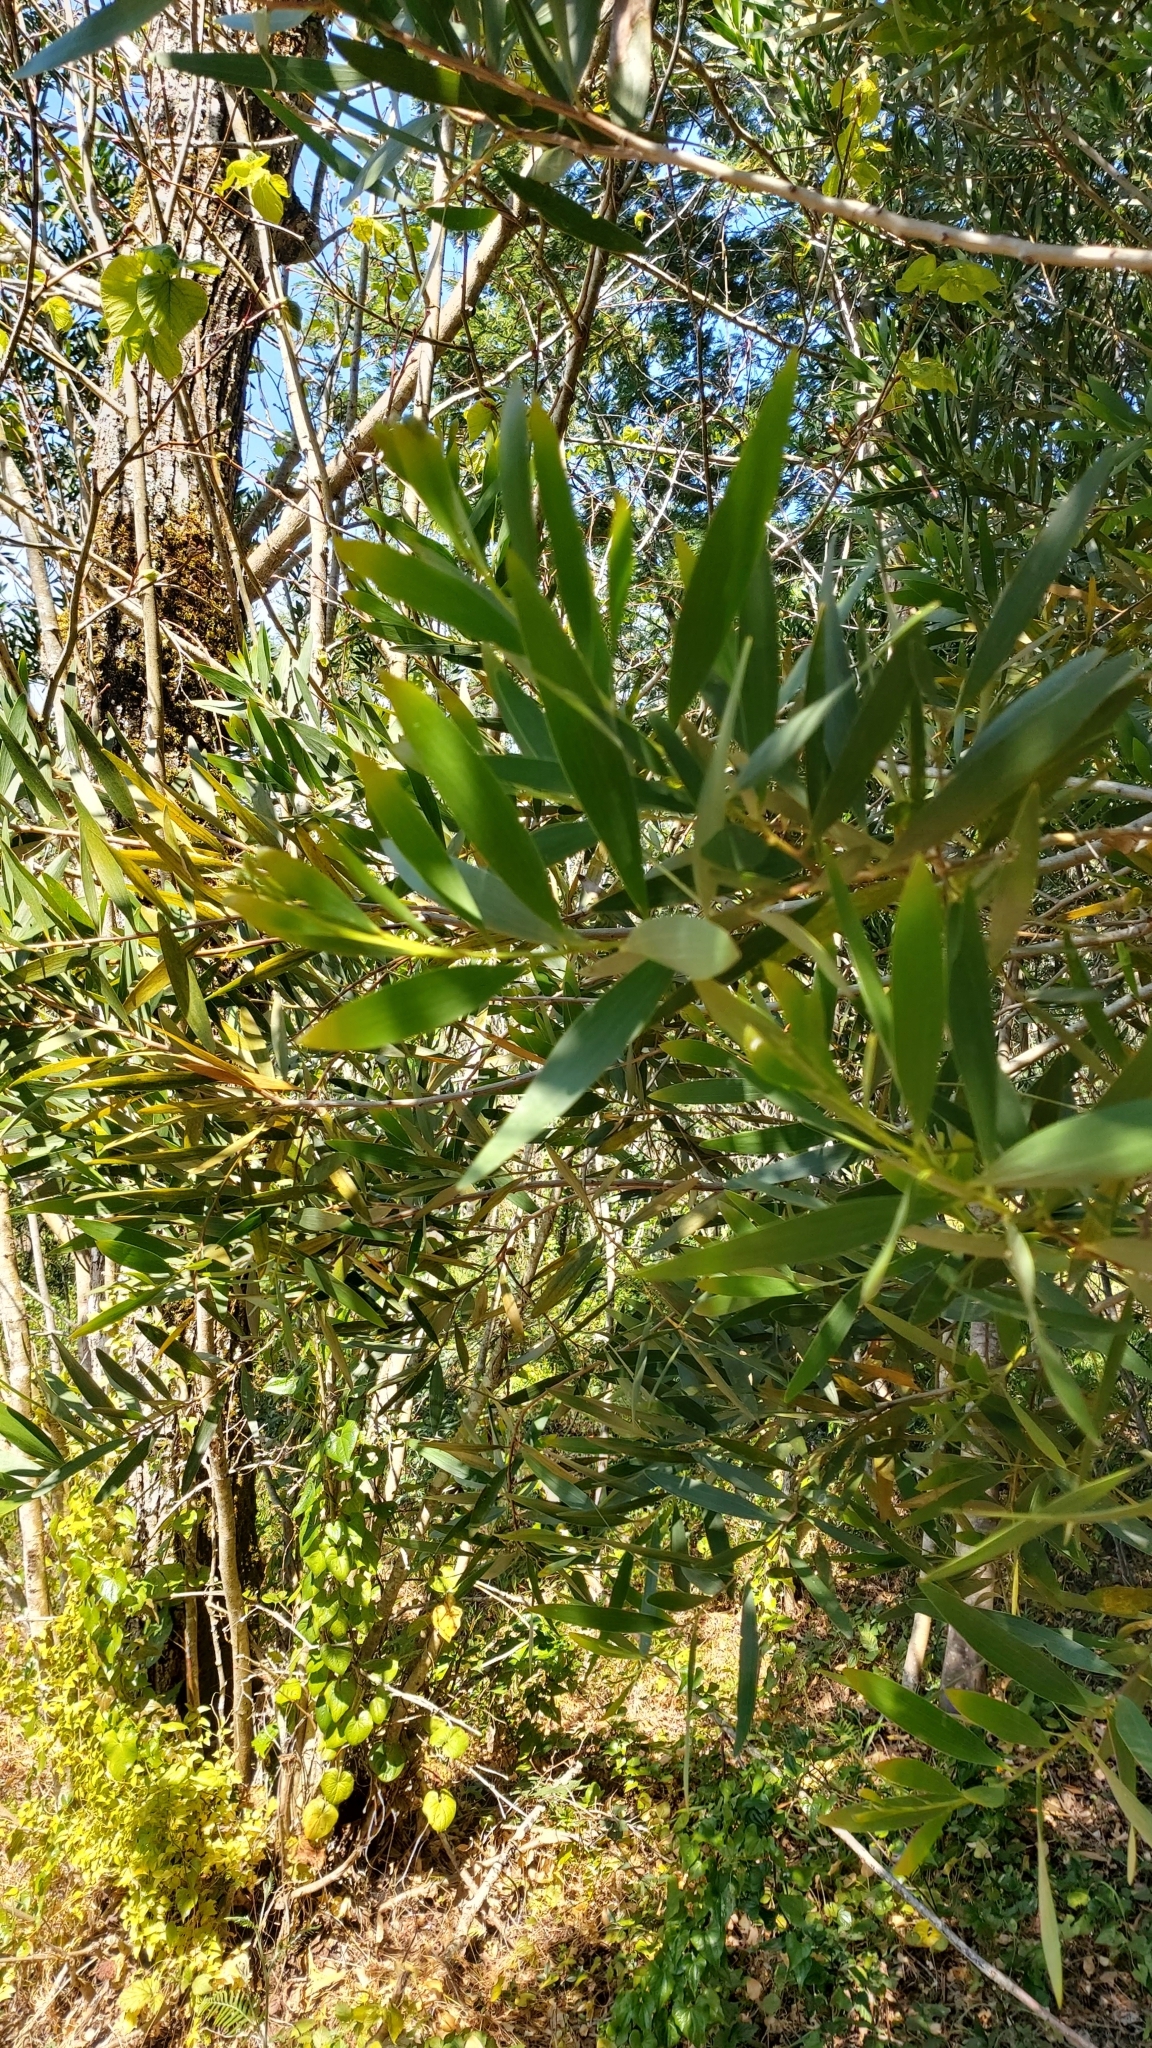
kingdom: Plantae
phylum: Tracheophyta
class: Magnoliopsida
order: Fabales
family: Fabaceae
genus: Acacia
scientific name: Acacia longifolia
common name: Sydney golden wattle
